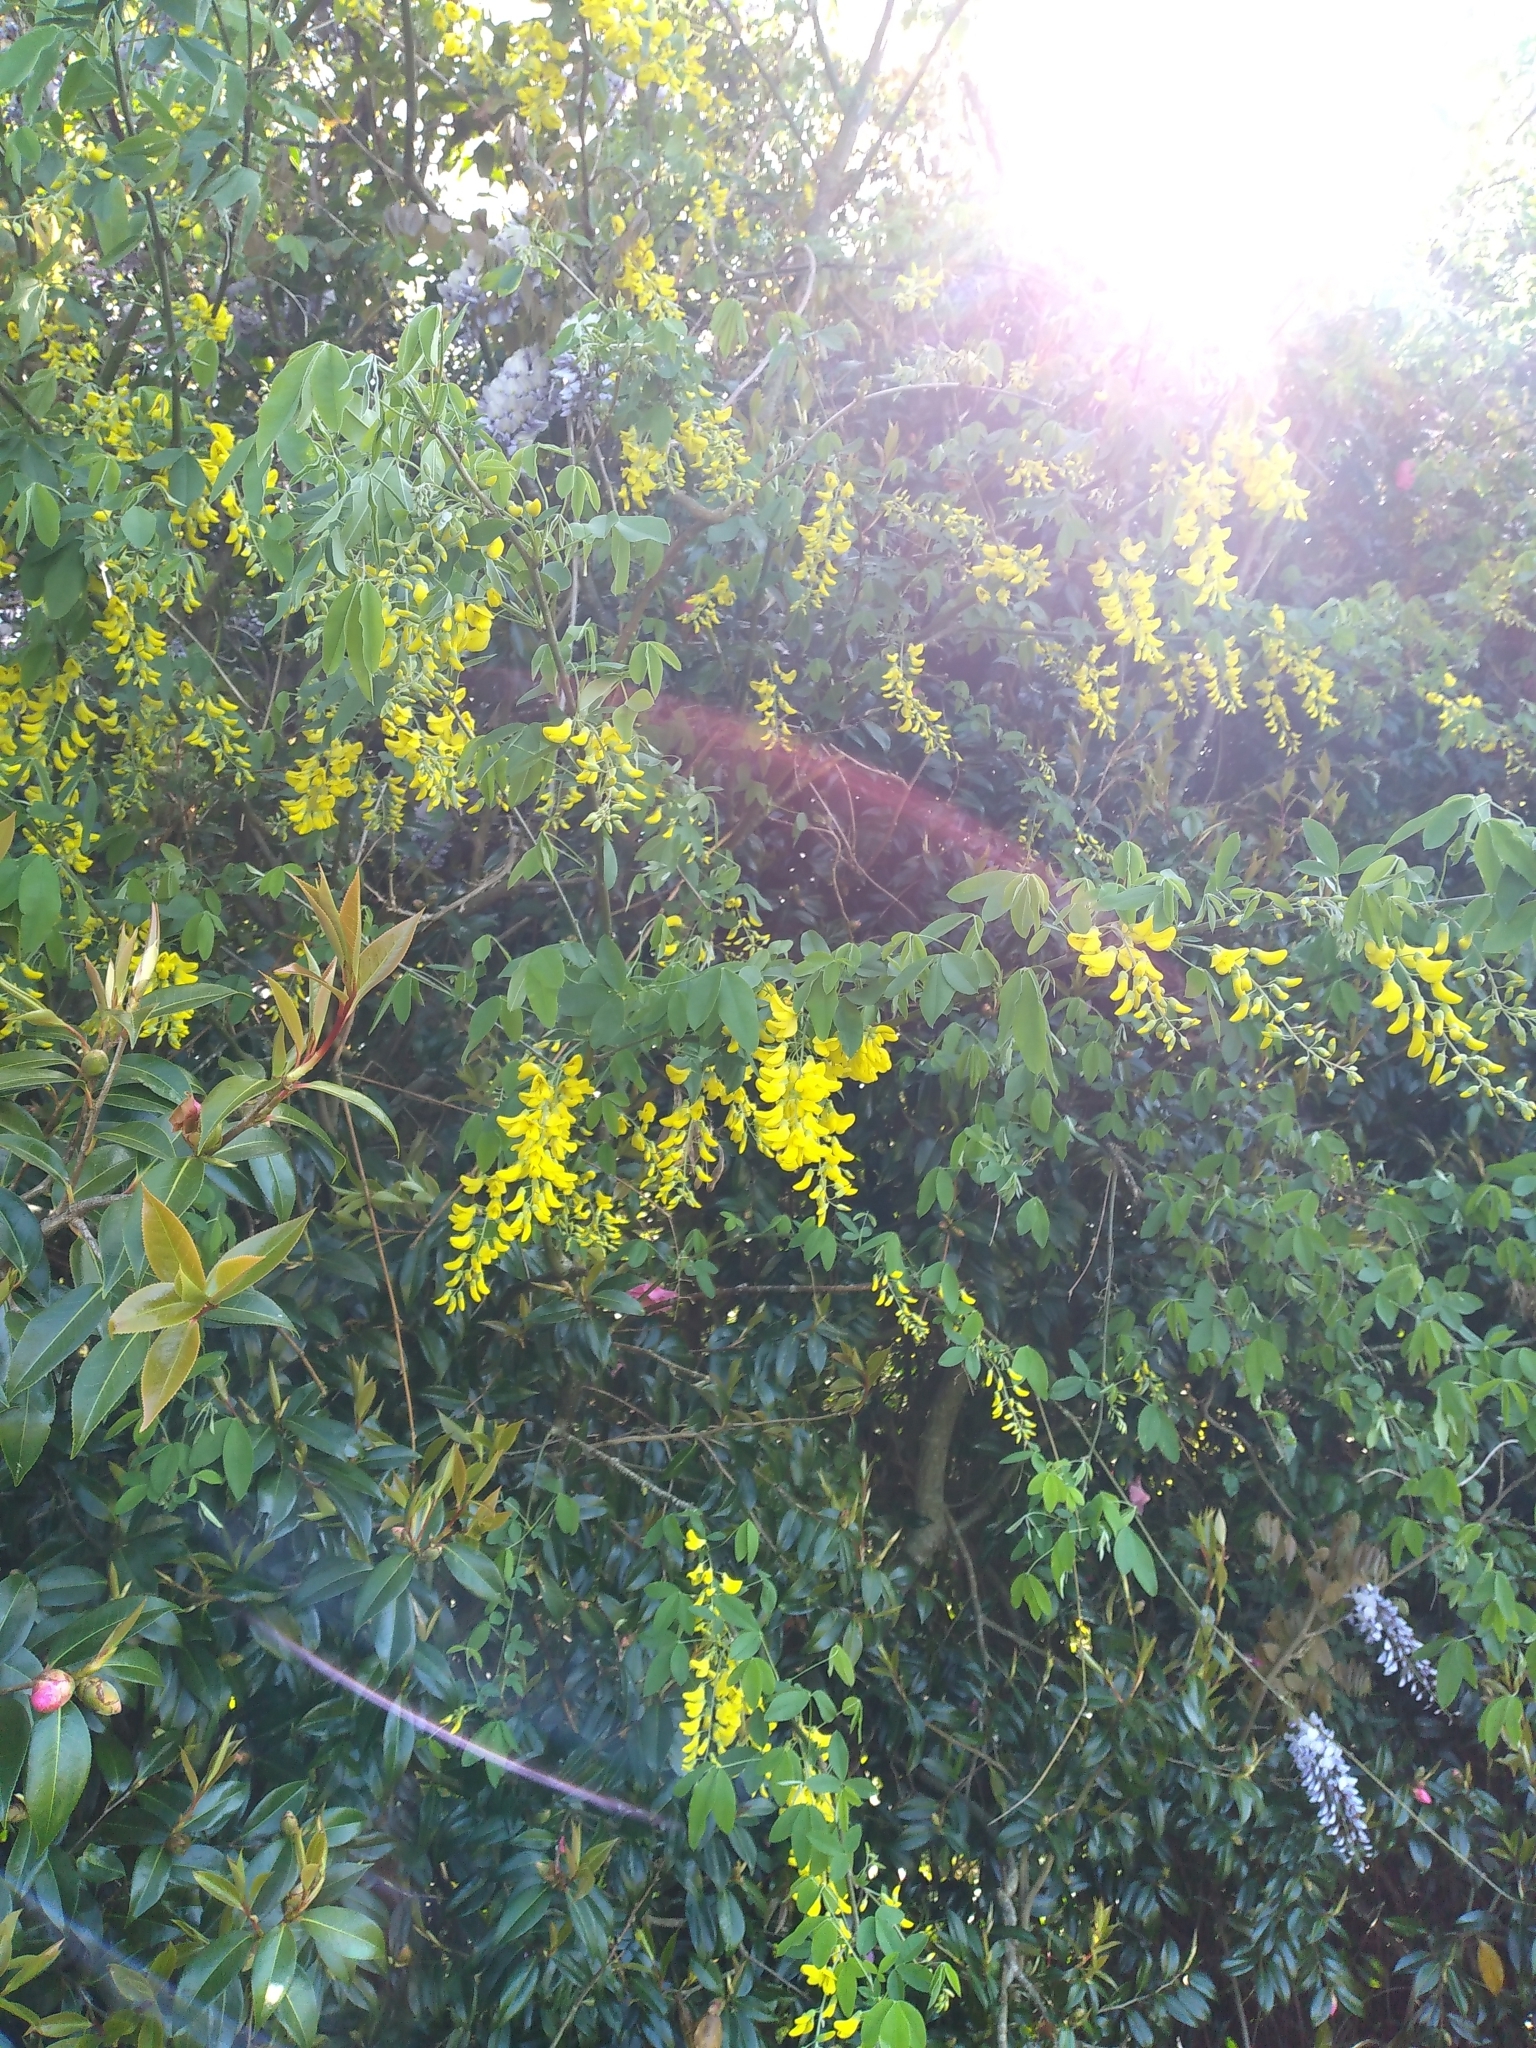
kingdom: Plantae
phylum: Tracheophyta
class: Magnoliopsida
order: Fabales
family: Fabaceae
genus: Laburnum
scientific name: Laburnum anagyroides
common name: Laburnum
